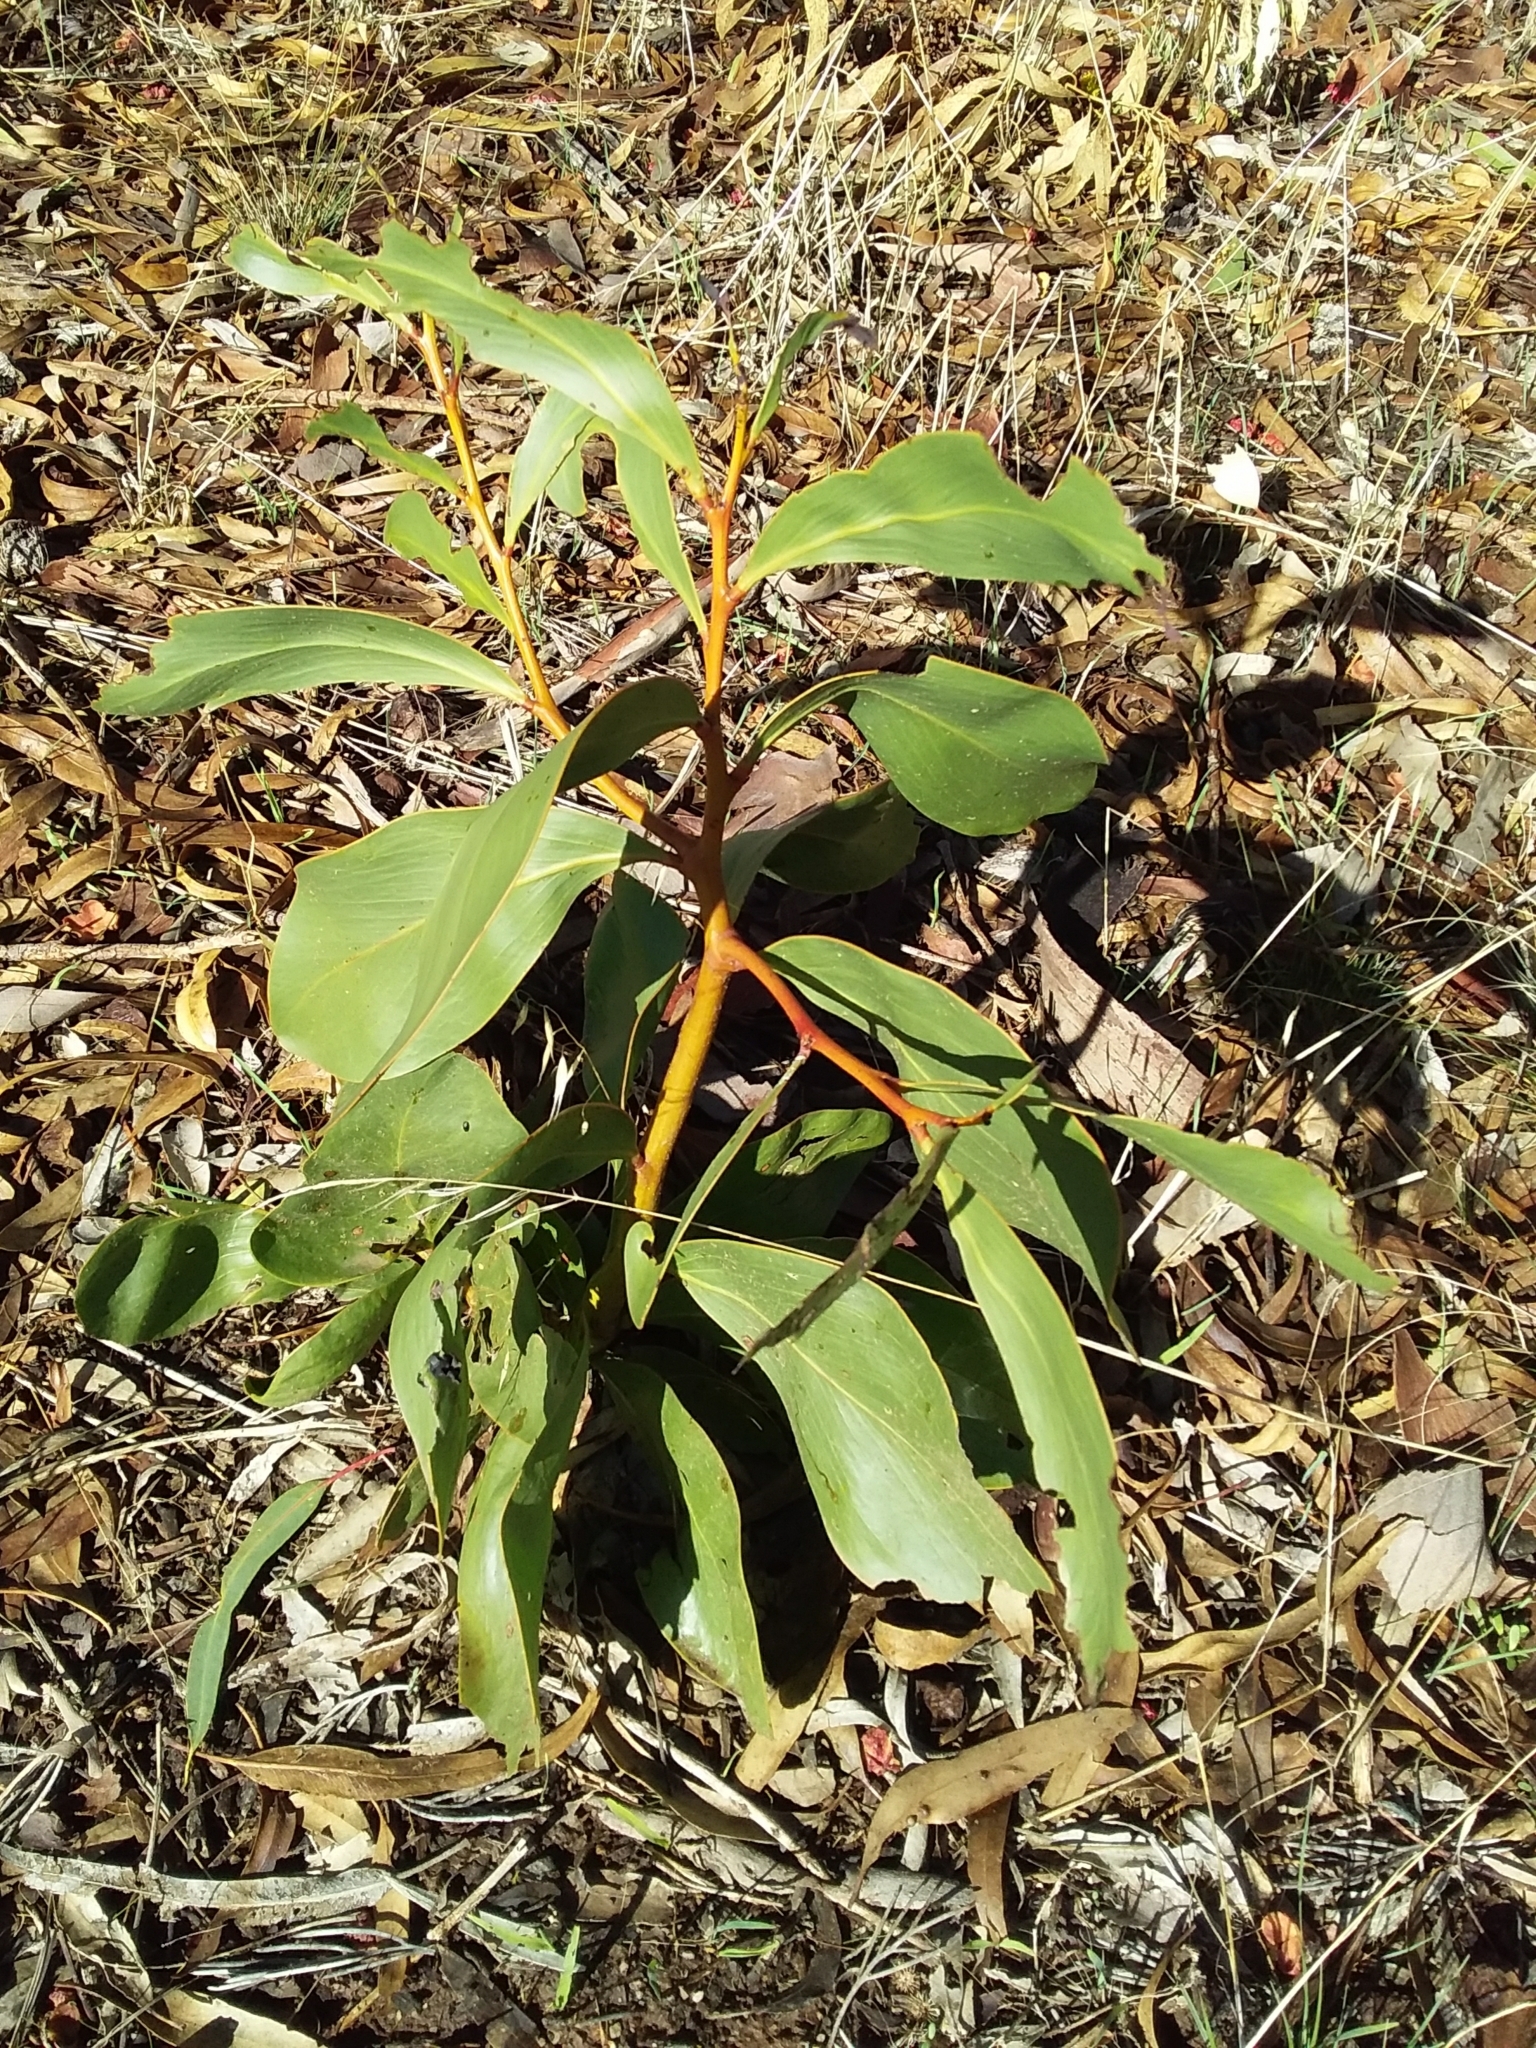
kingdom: Plantae
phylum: Tracheophyta
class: Magnoliopsida
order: Fabales
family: Fabaceae
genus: Acacia
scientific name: Acacia pycnantha
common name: Golden wattle
